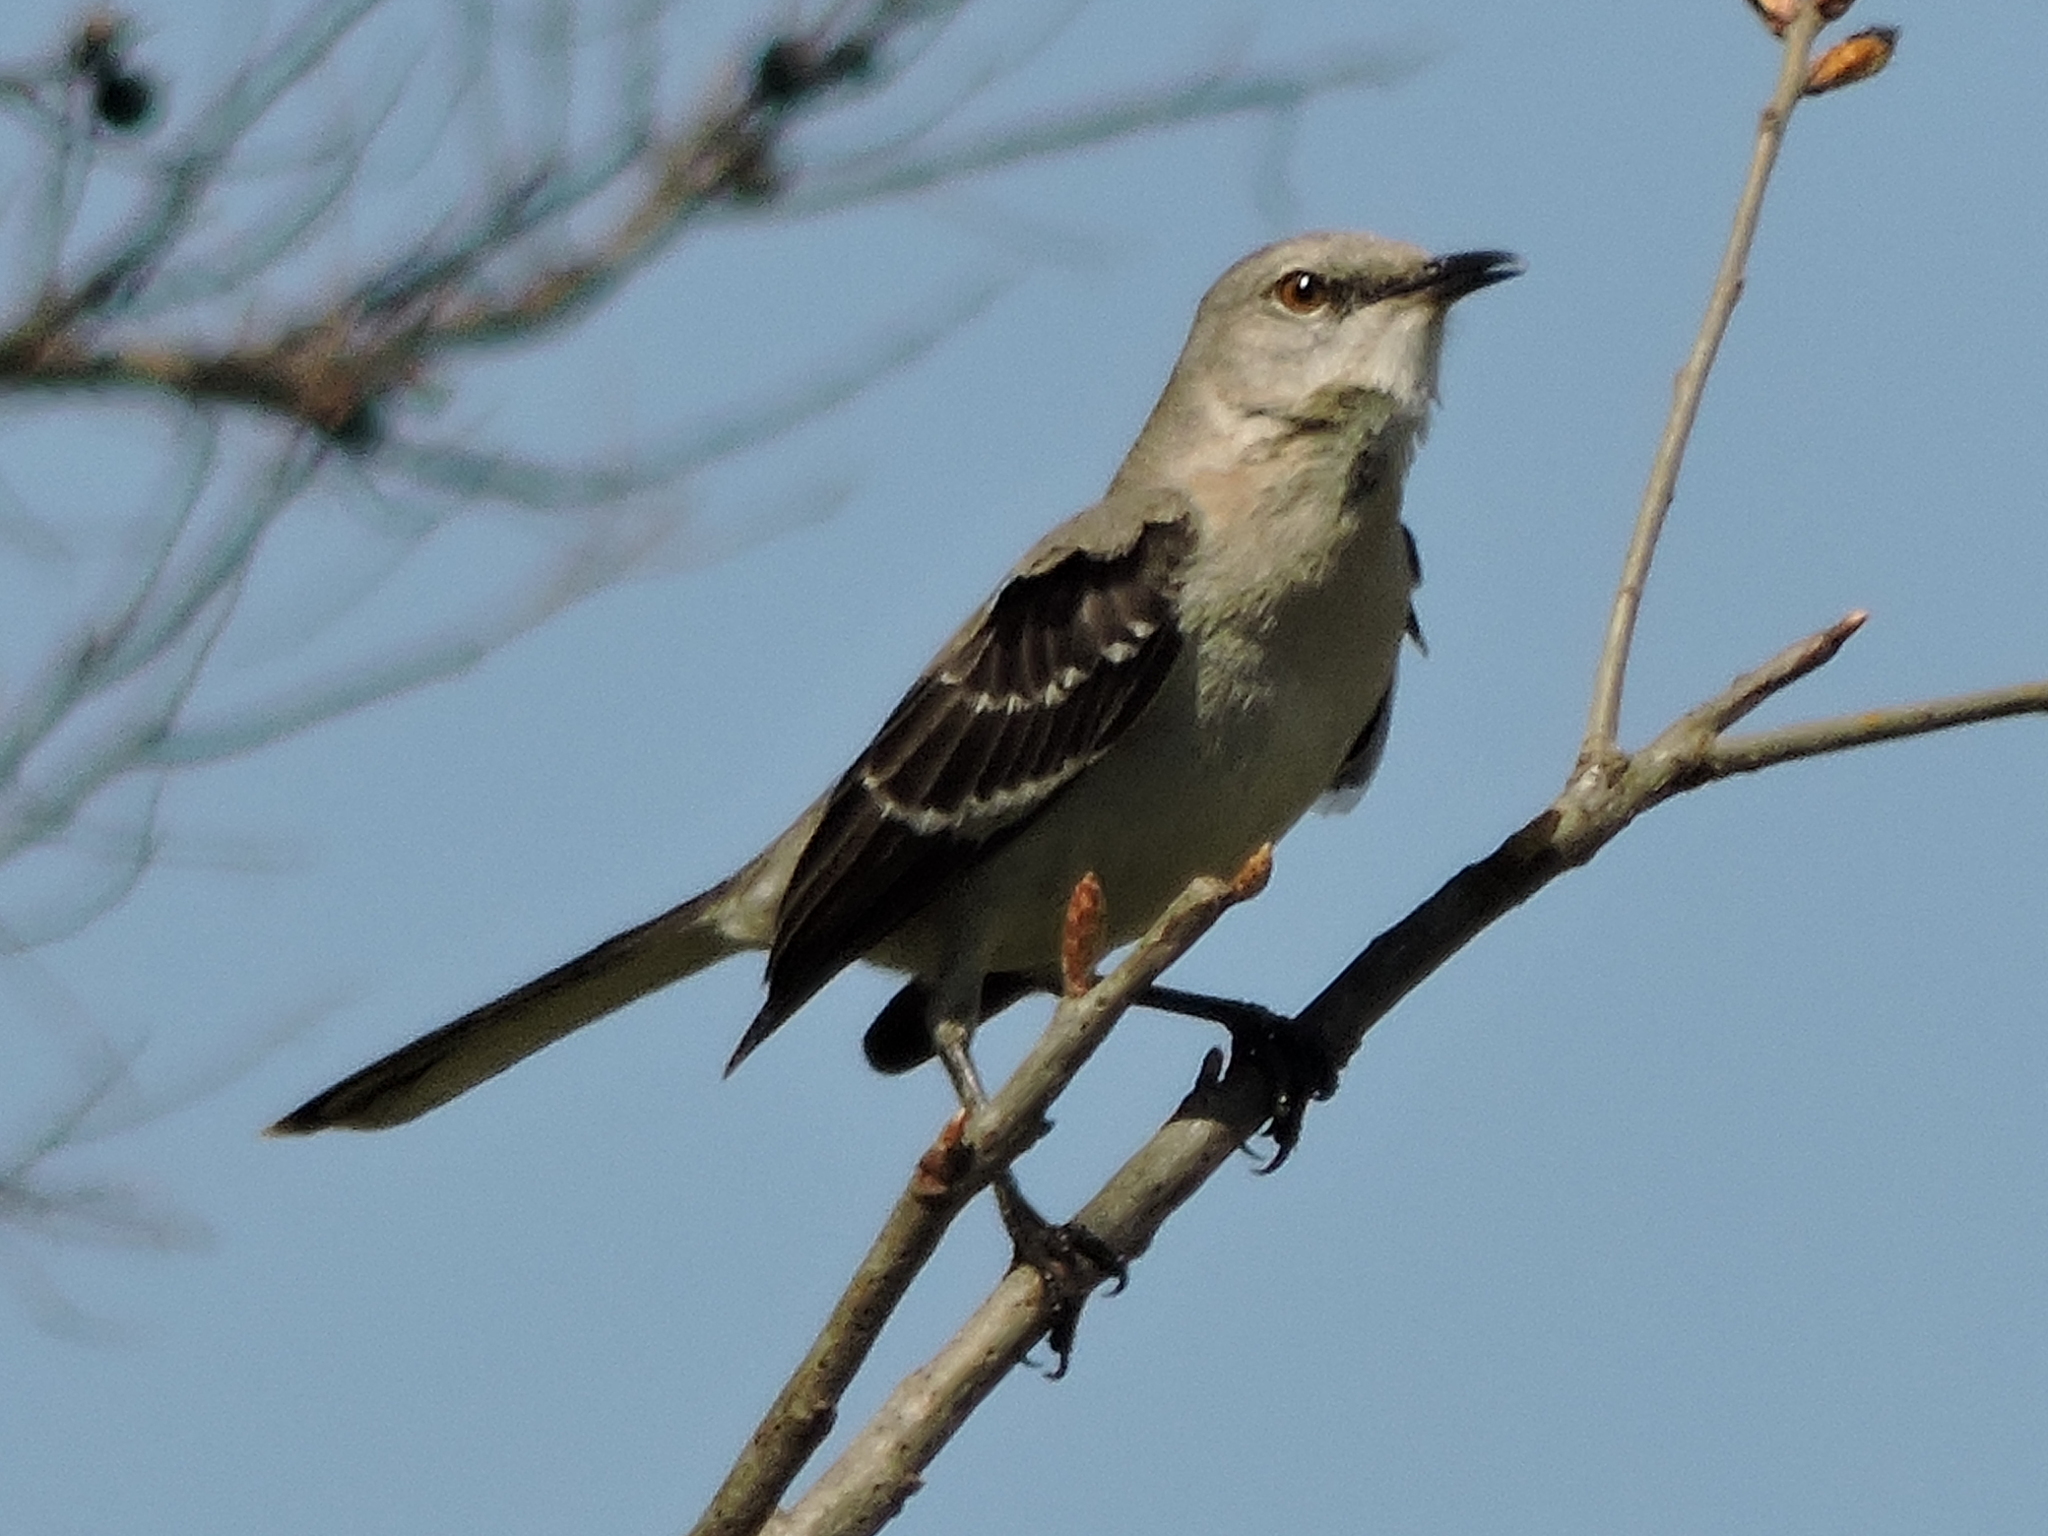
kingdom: Animalia
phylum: Chordata
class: Aves
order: Passeriformes
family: Mimidae
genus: Mimus
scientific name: Mimus polyglottos
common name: Northern mockingbird
